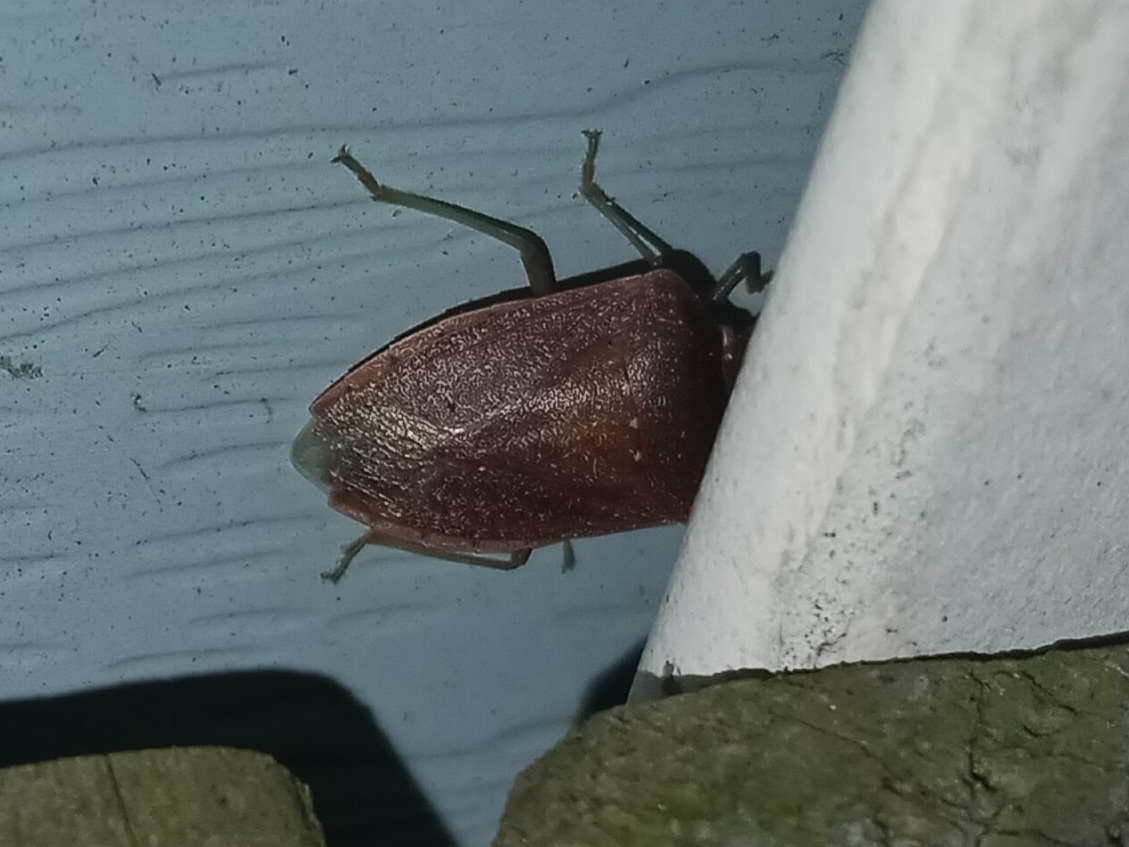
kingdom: Animalia
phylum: Arthropoda
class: Insecta
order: Hemiptera
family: Pentatomidae
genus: Nezara
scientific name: Nezara viridula
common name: Southern green stink bug
